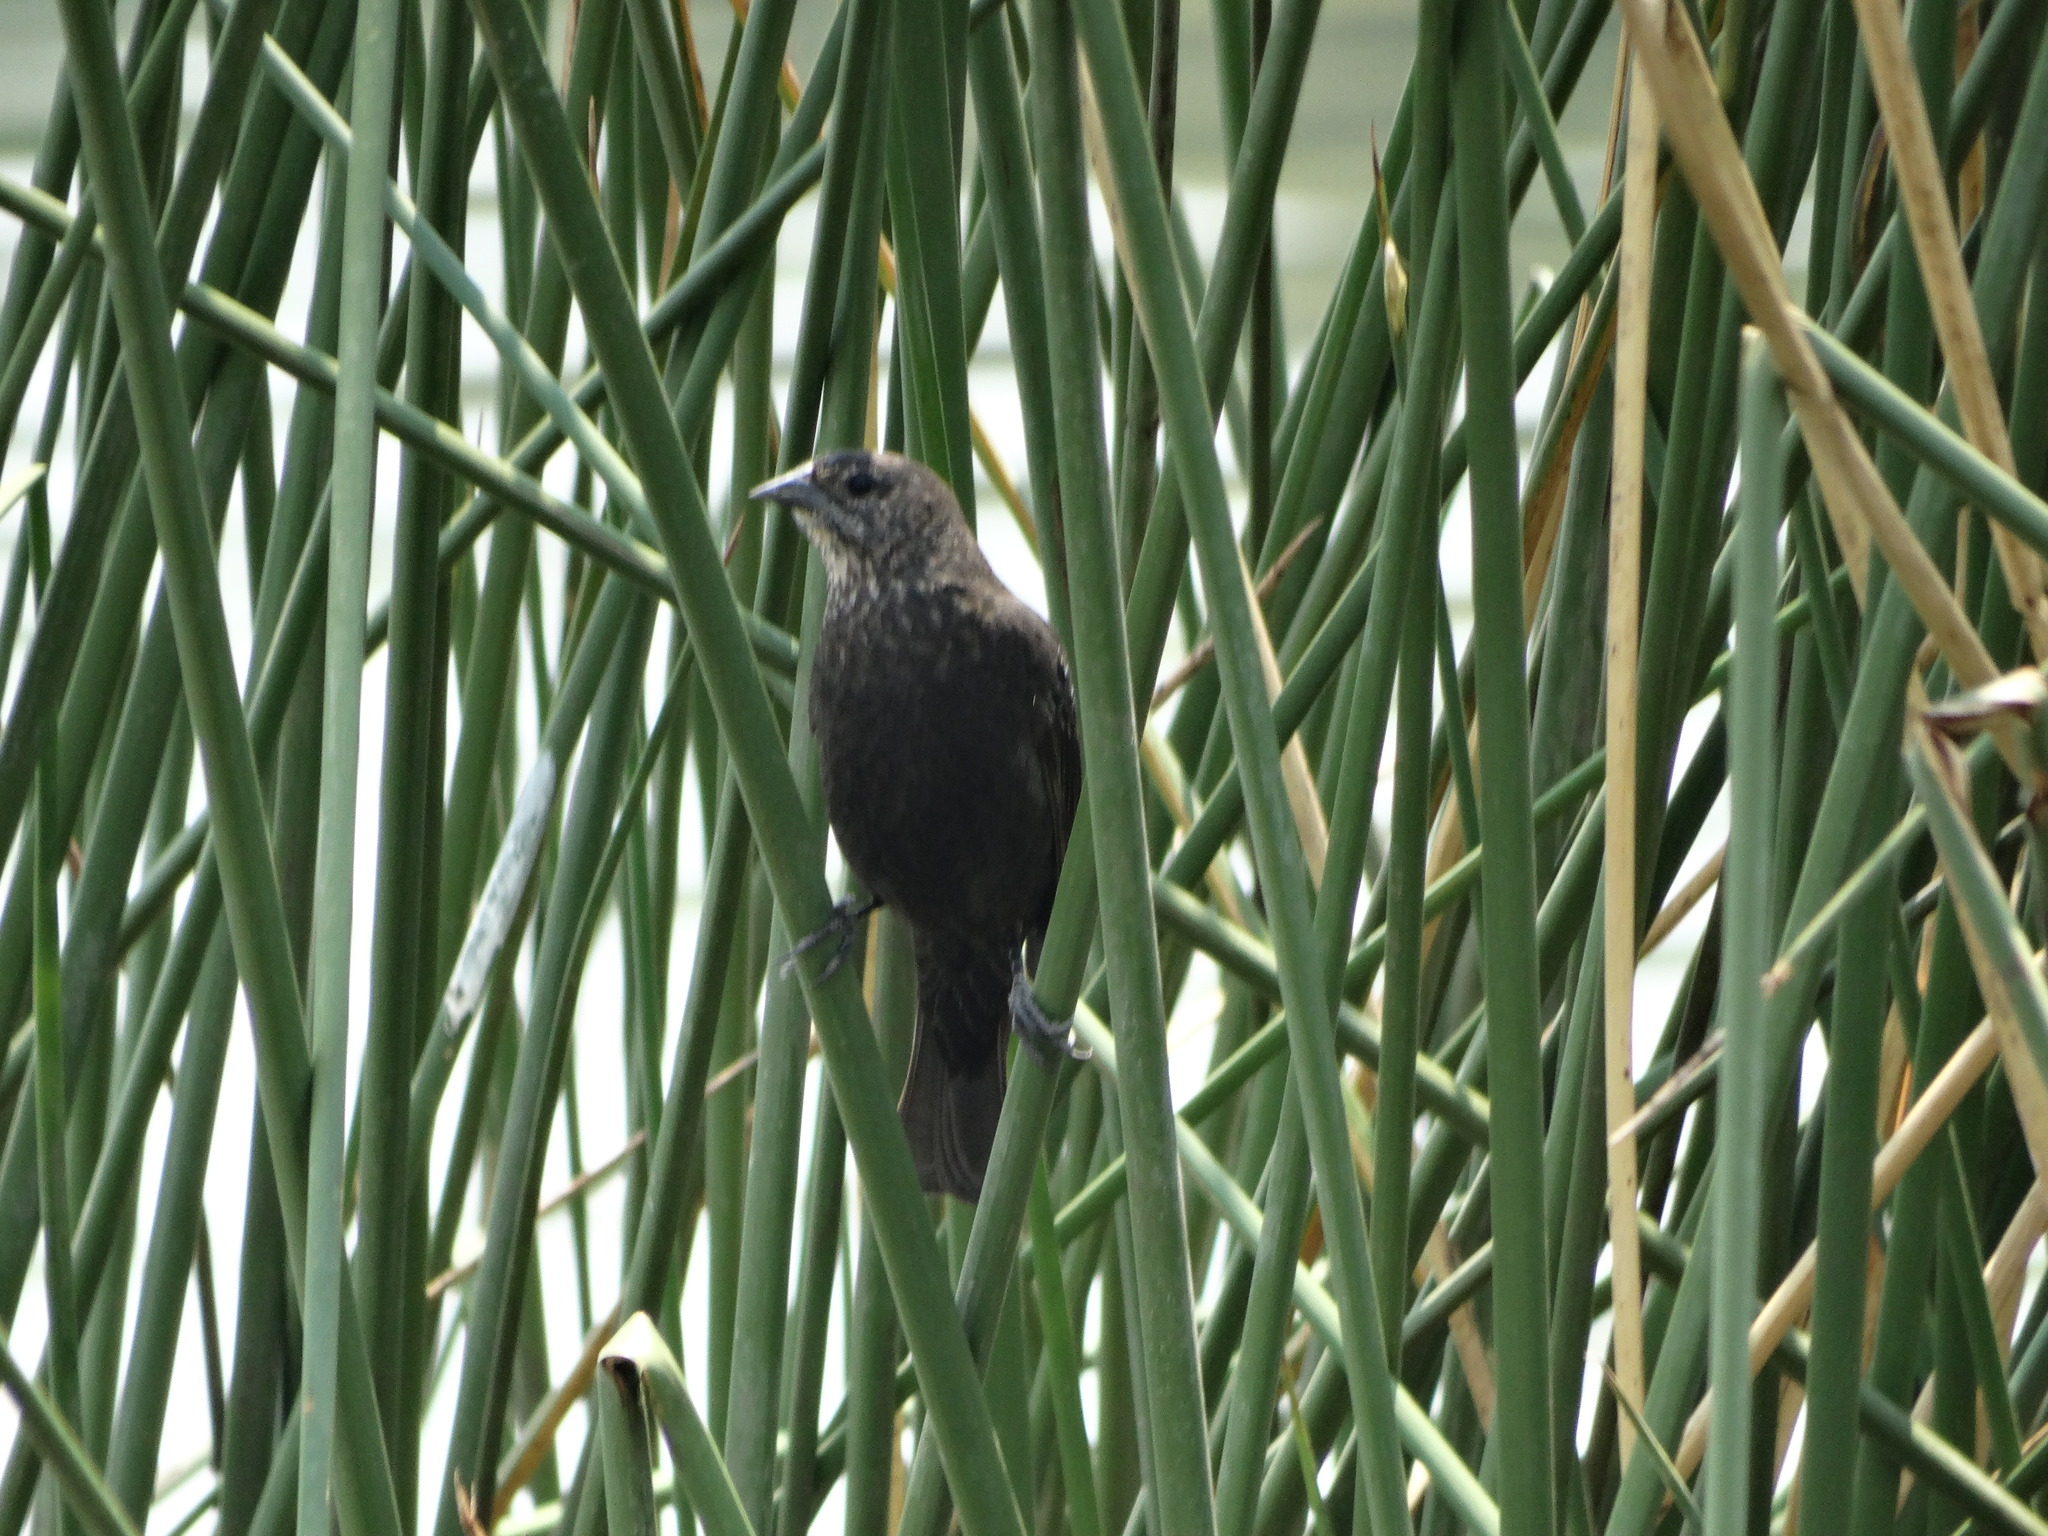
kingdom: Animalia
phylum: Chordata
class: Aves
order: Passeriformes
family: Icteridae
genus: Agelaius
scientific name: Agelaius phoeniceus
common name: Red-winged blackbird
